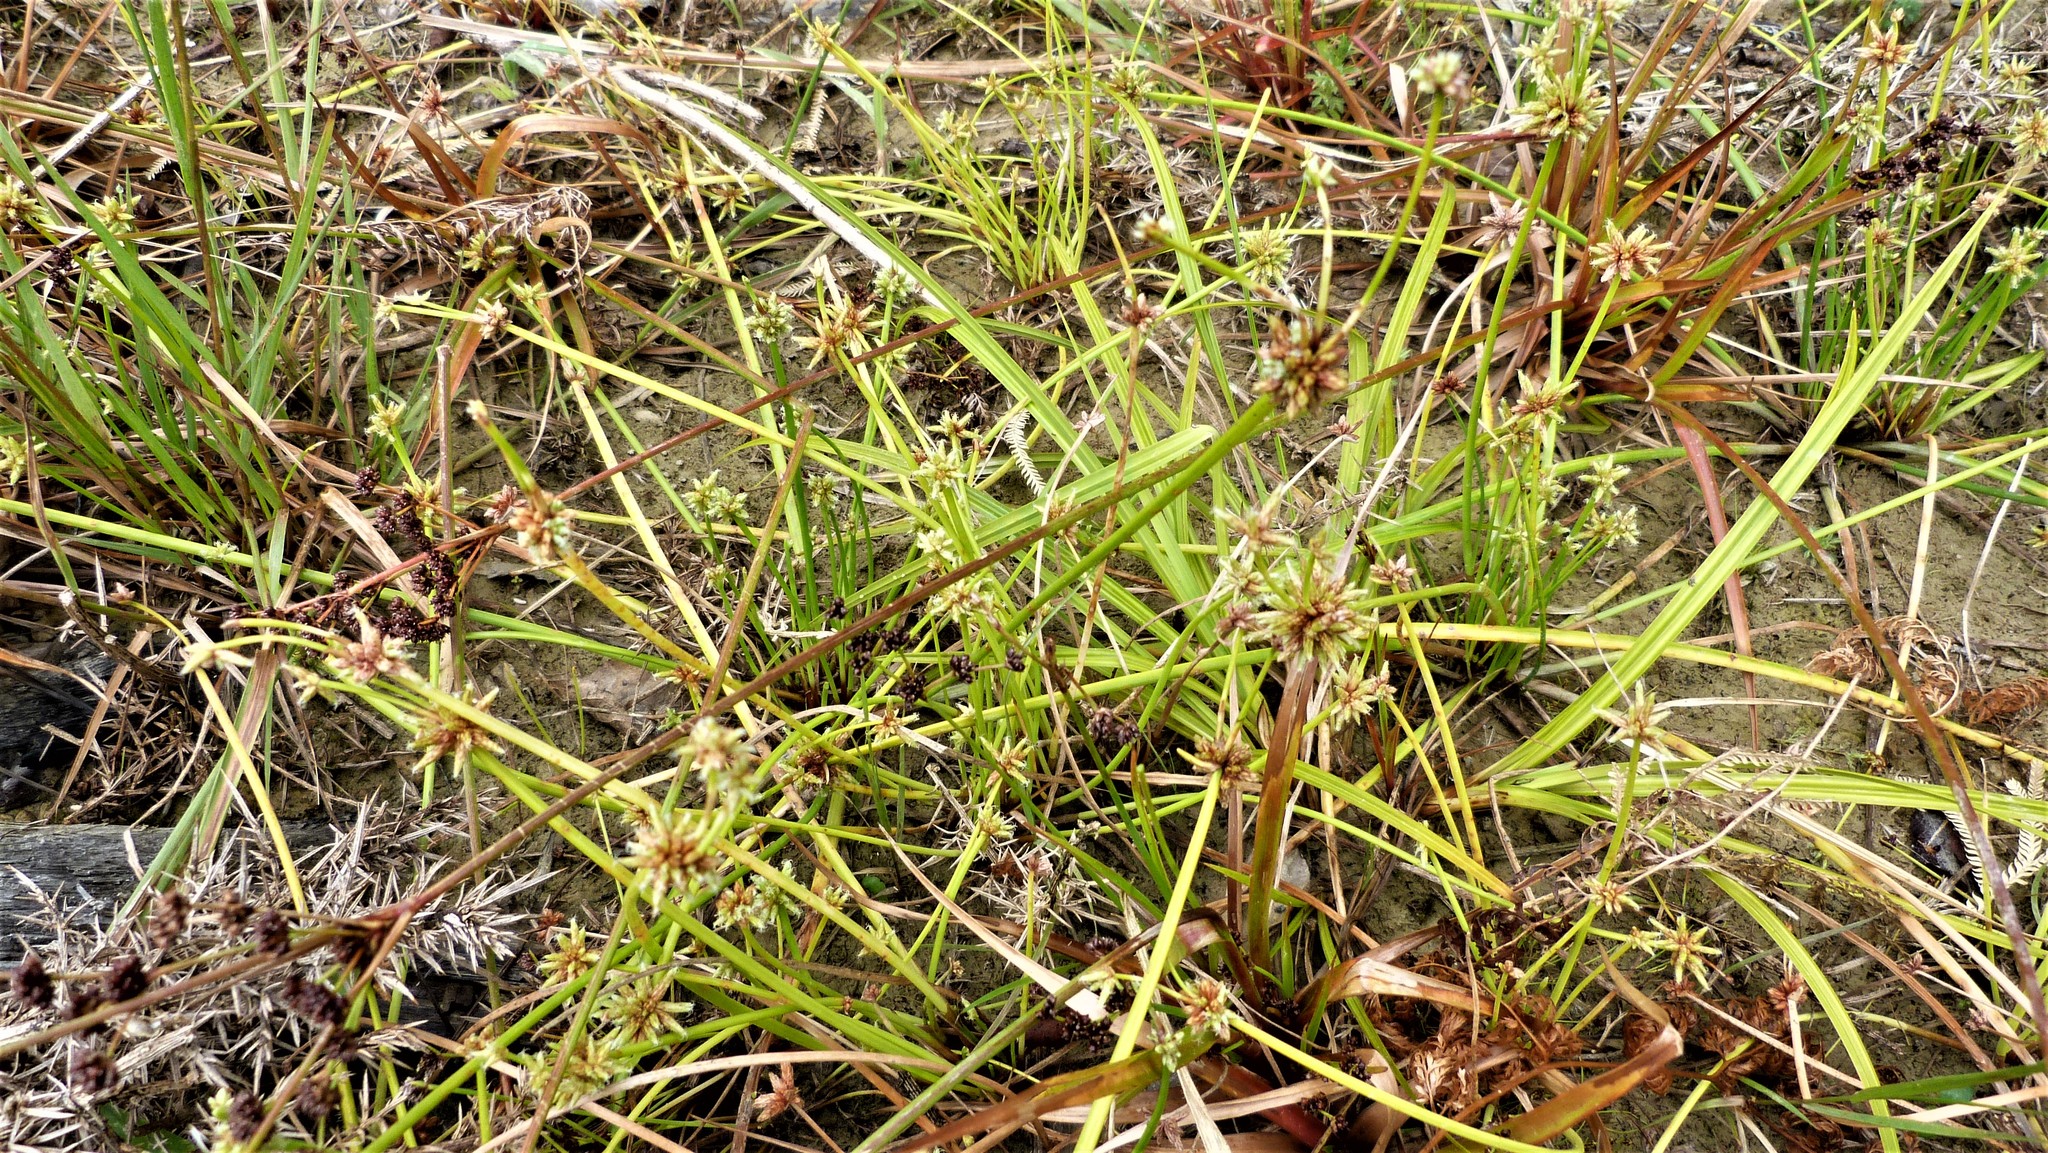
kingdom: Plantae
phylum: Tracheophyta
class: Liliopsida
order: Poales
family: Cyperaceae
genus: Isolepis
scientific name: Isolepis prolifera
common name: Proliferating bulrush
